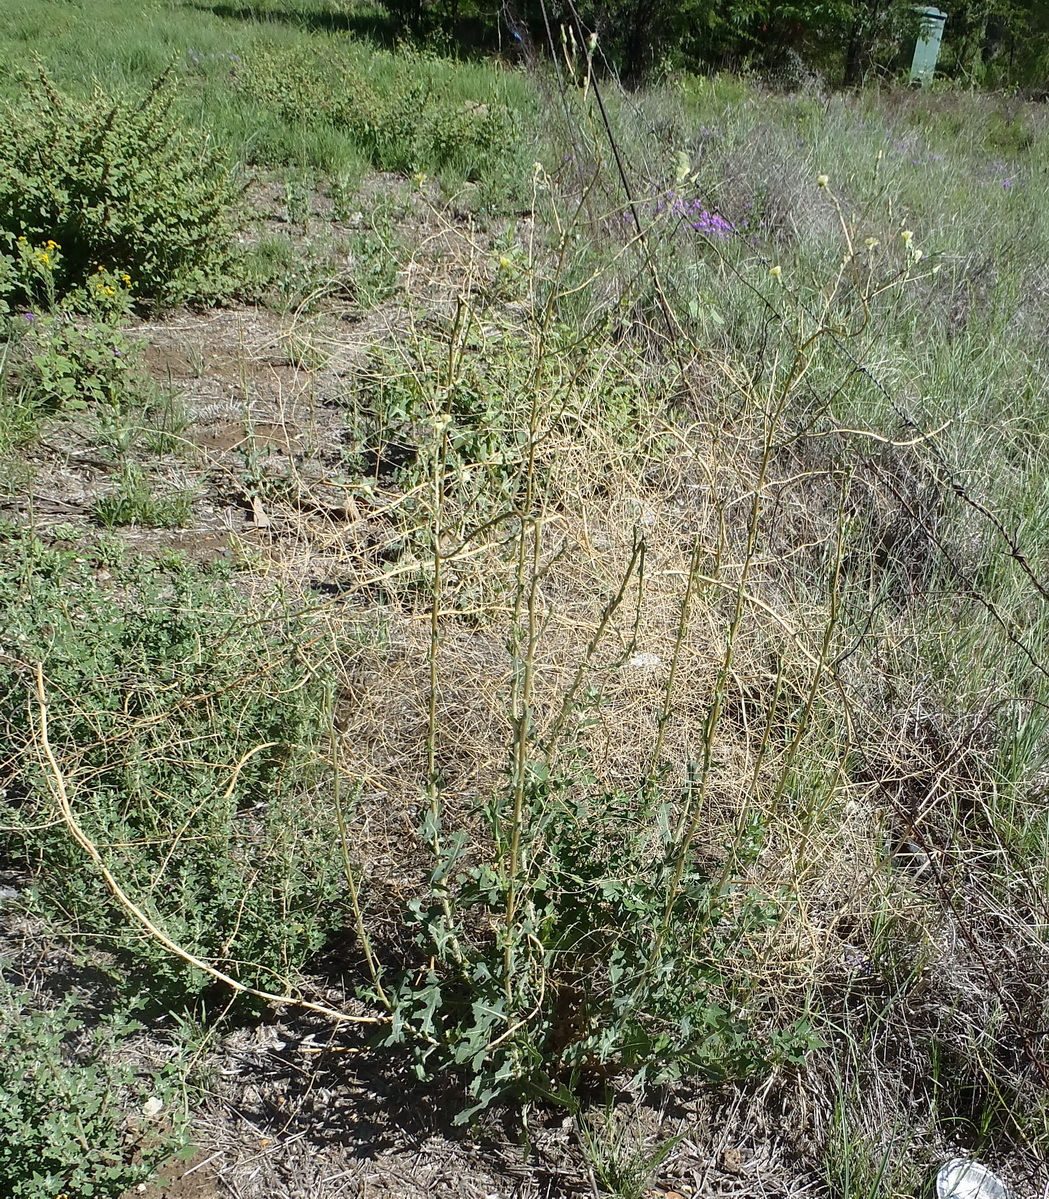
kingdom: Plantae
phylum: Tracheophyta
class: Magnoliopsida
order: Asterales
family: Asteraceae
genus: Lactuca
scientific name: Lactuca serriola
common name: Prickly lettuce
